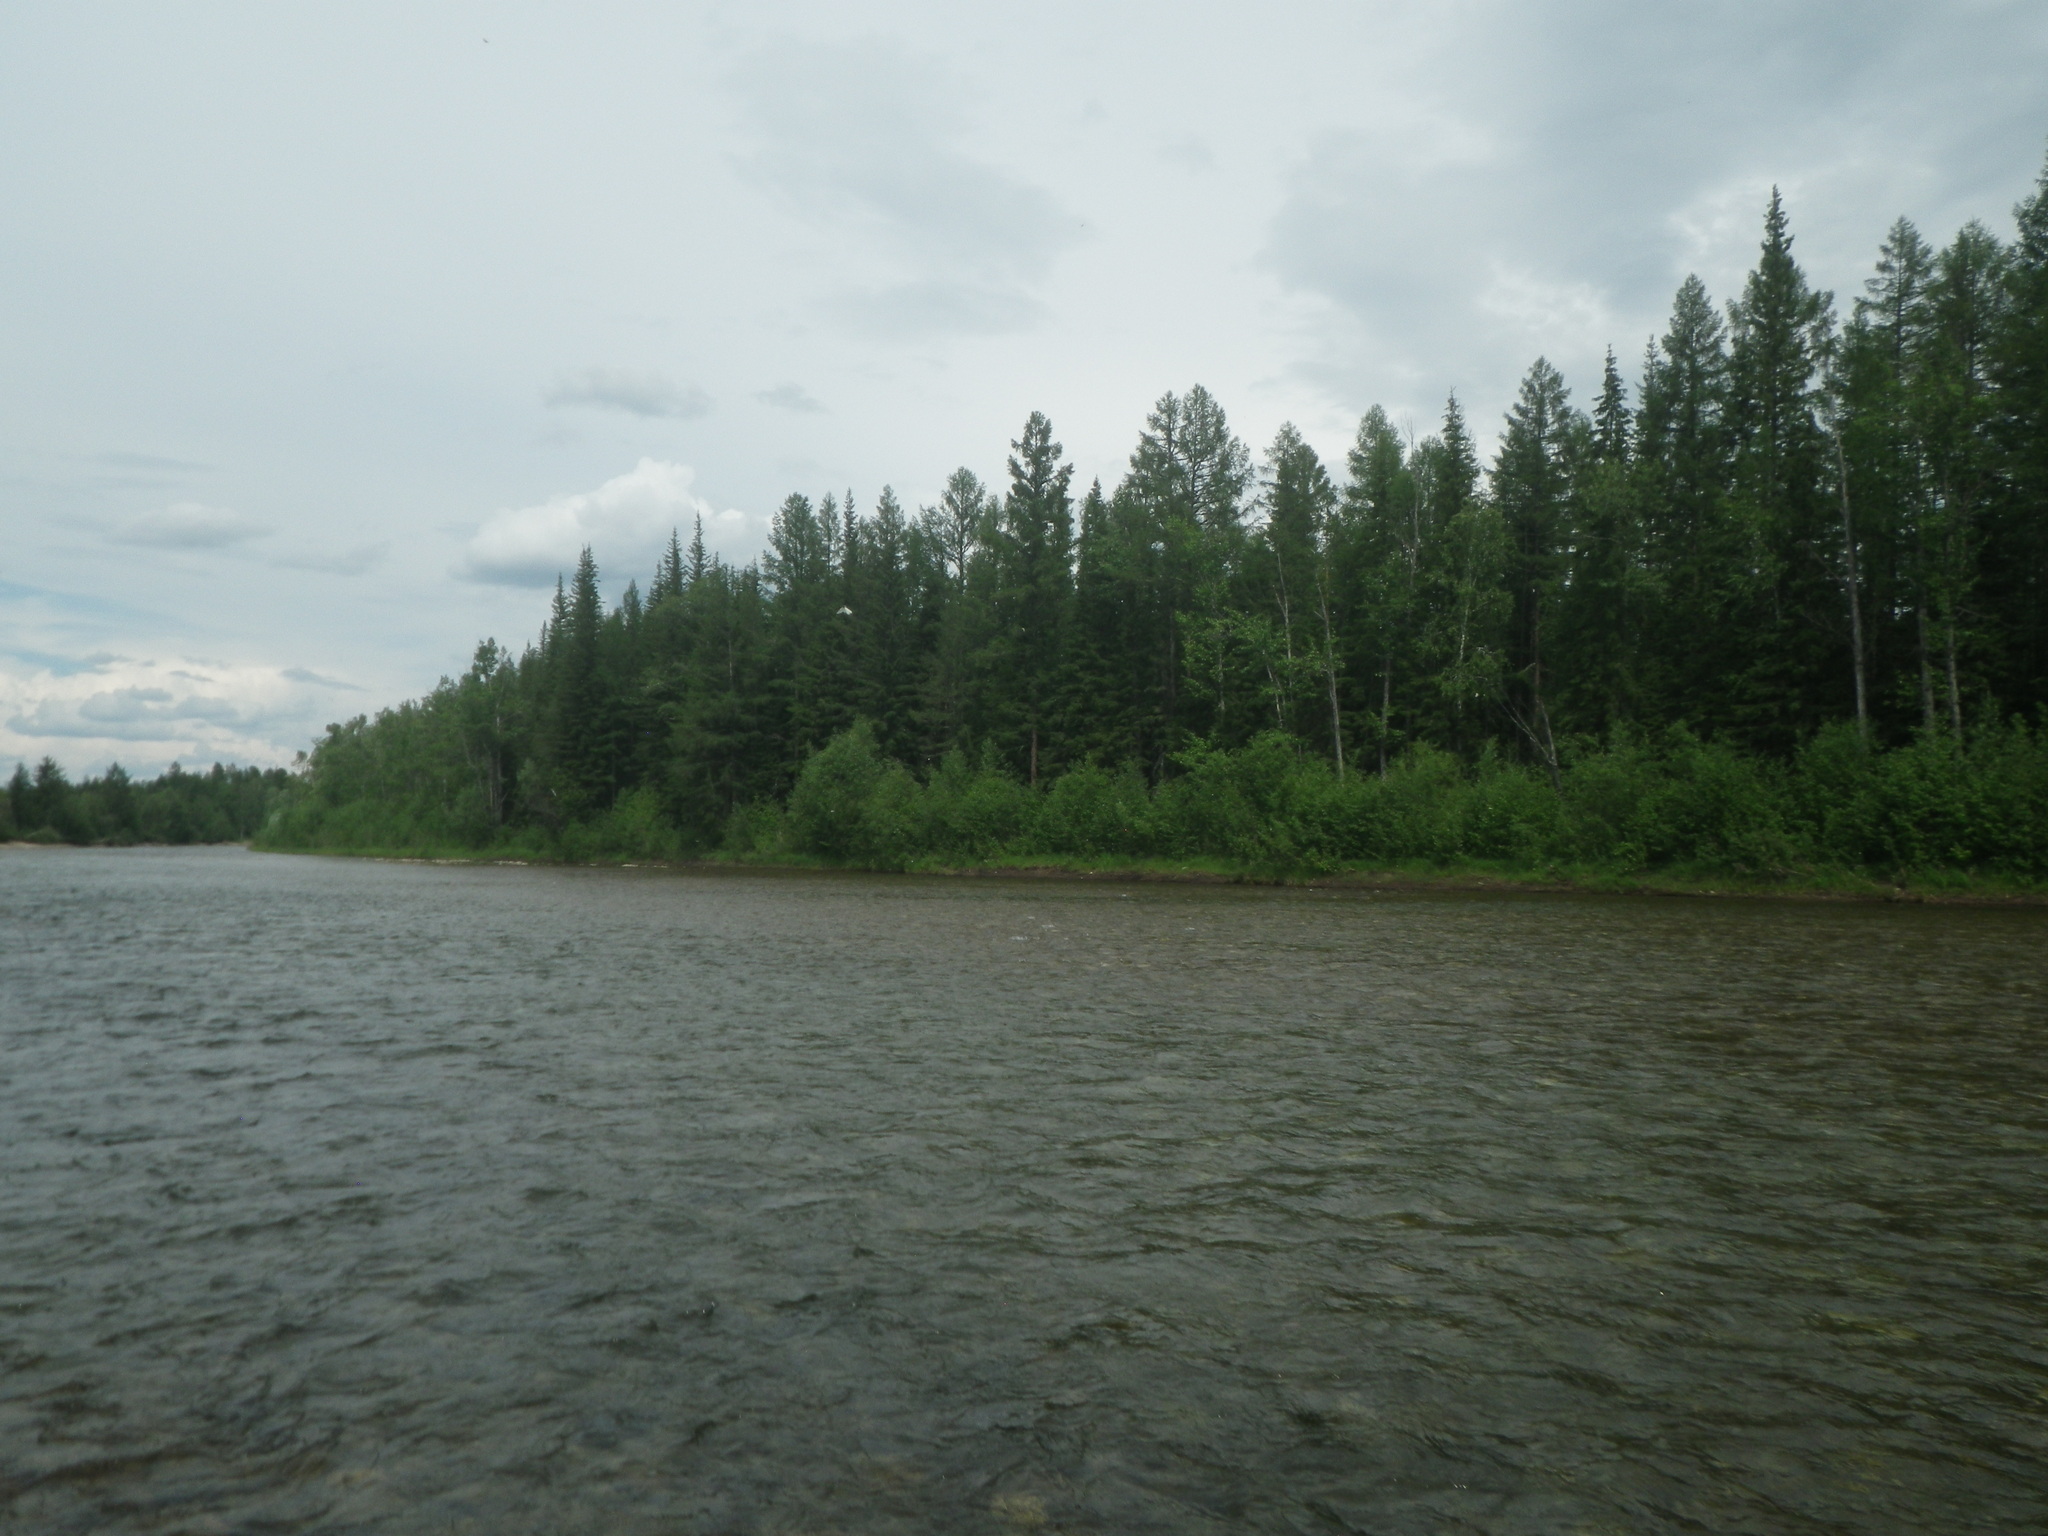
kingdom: Plantae
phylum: Tracheophyta
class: Pinopsida
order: Pinales
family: Pinaceae
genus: Picea
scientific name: Picea obovata
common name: Siberian spruce
